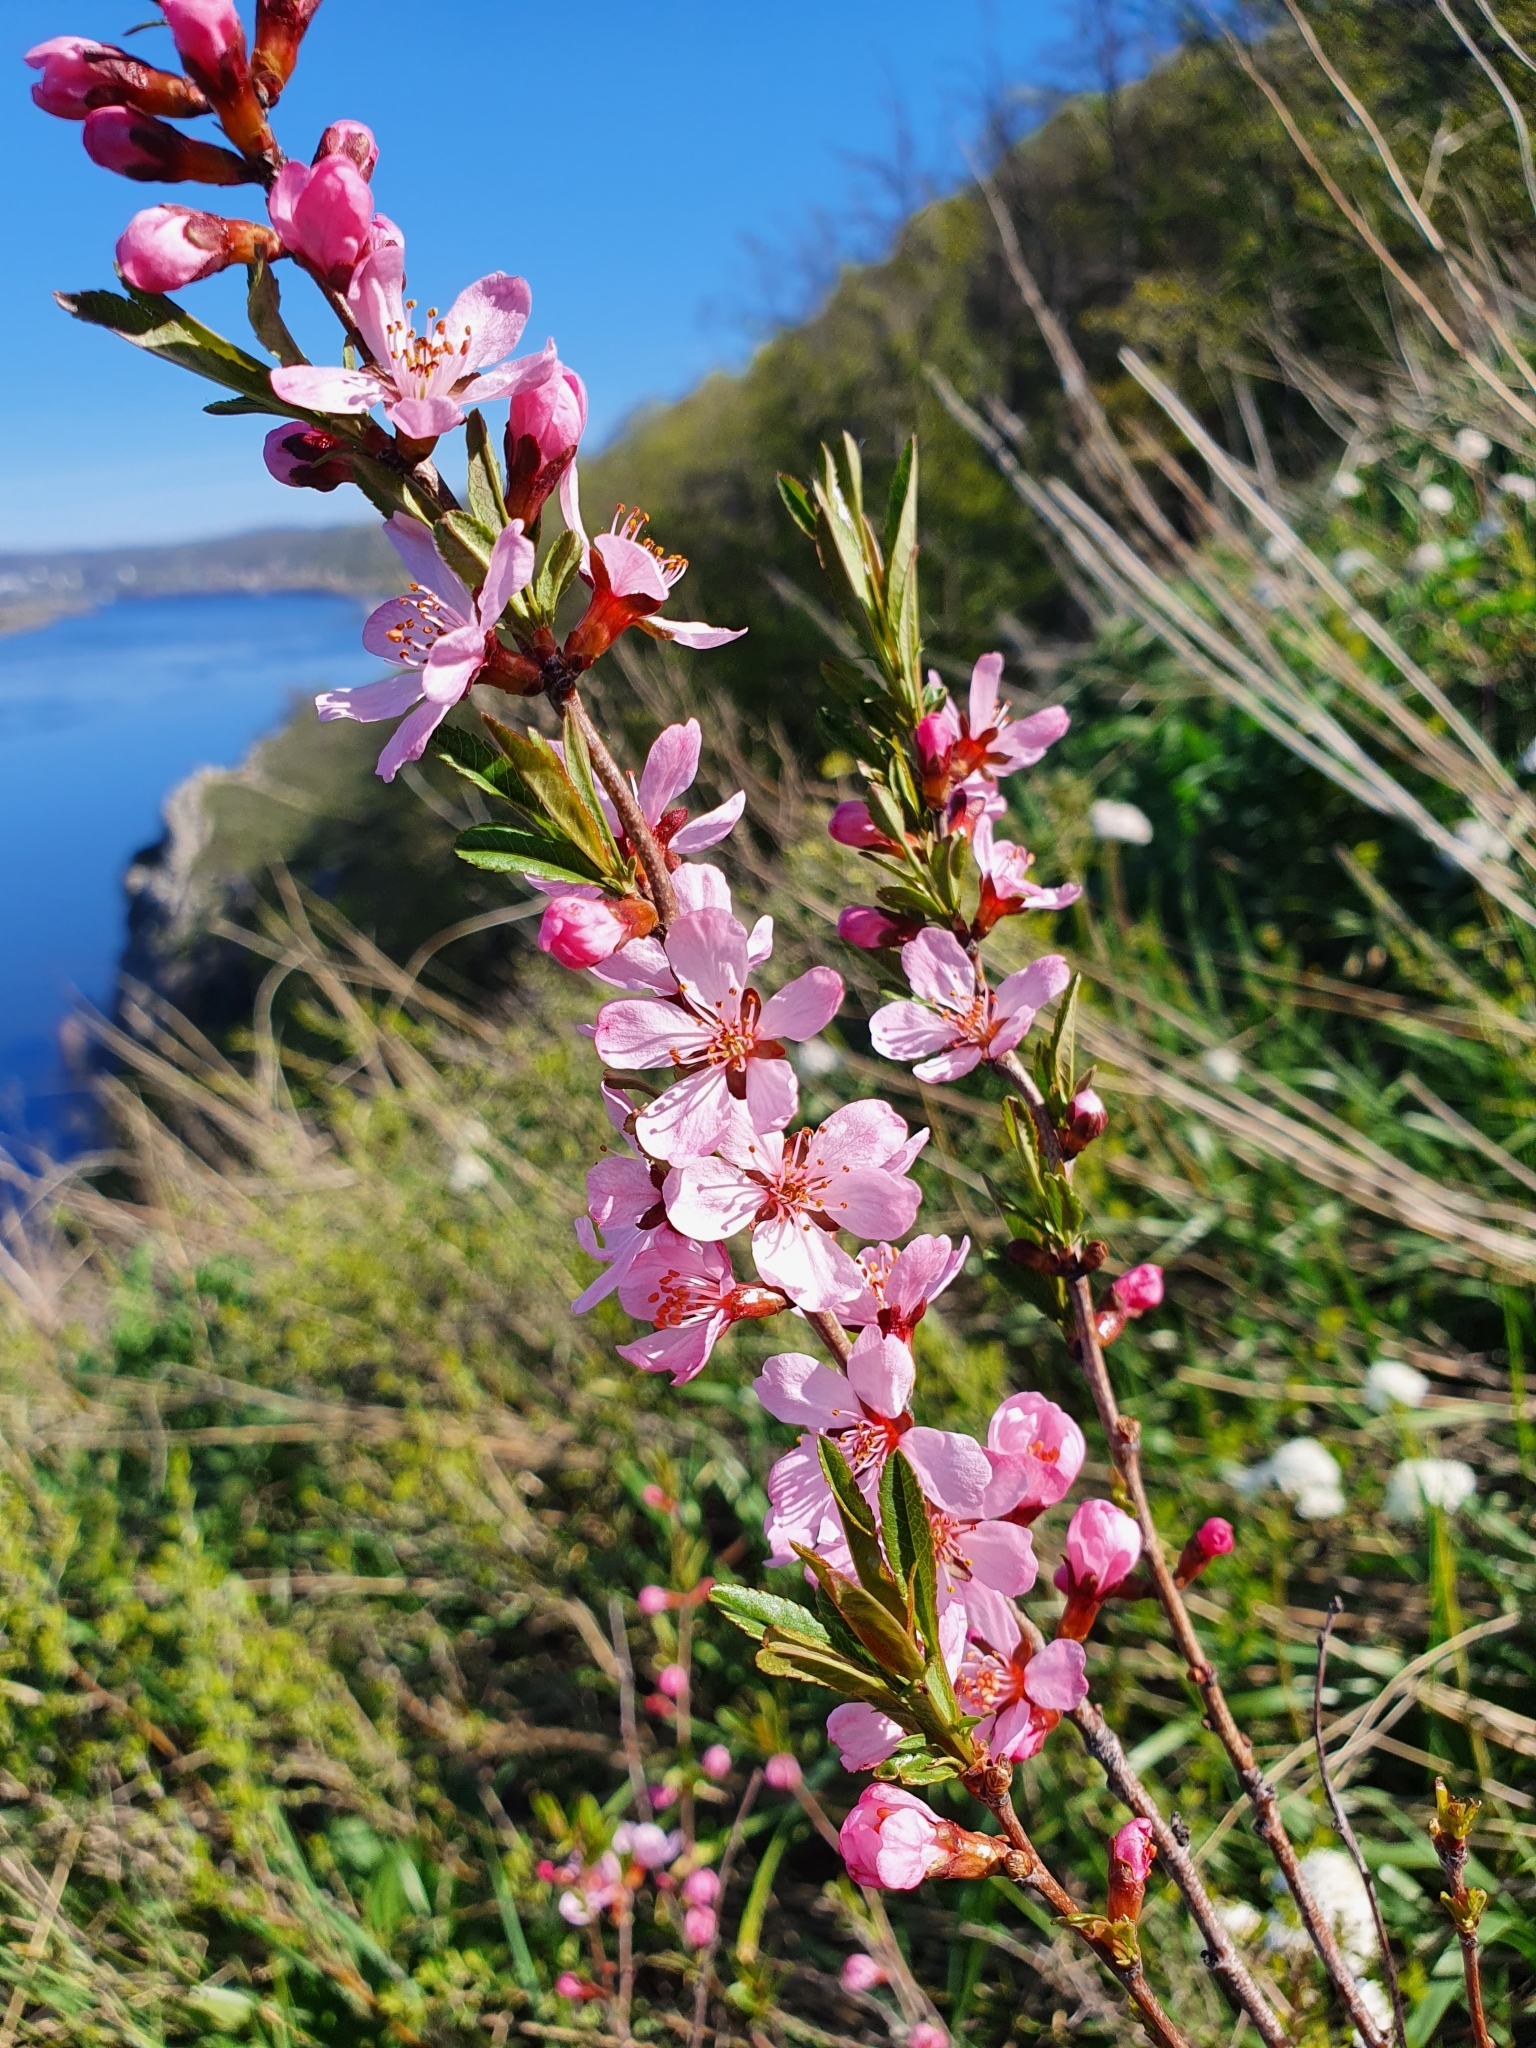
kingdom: Plantae
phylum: Tracheophyta
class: Magnoliopsida
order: Rosales
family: Rosaceae
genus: Prunus
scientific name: Prunus tenella
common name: Dwarf russian almond
